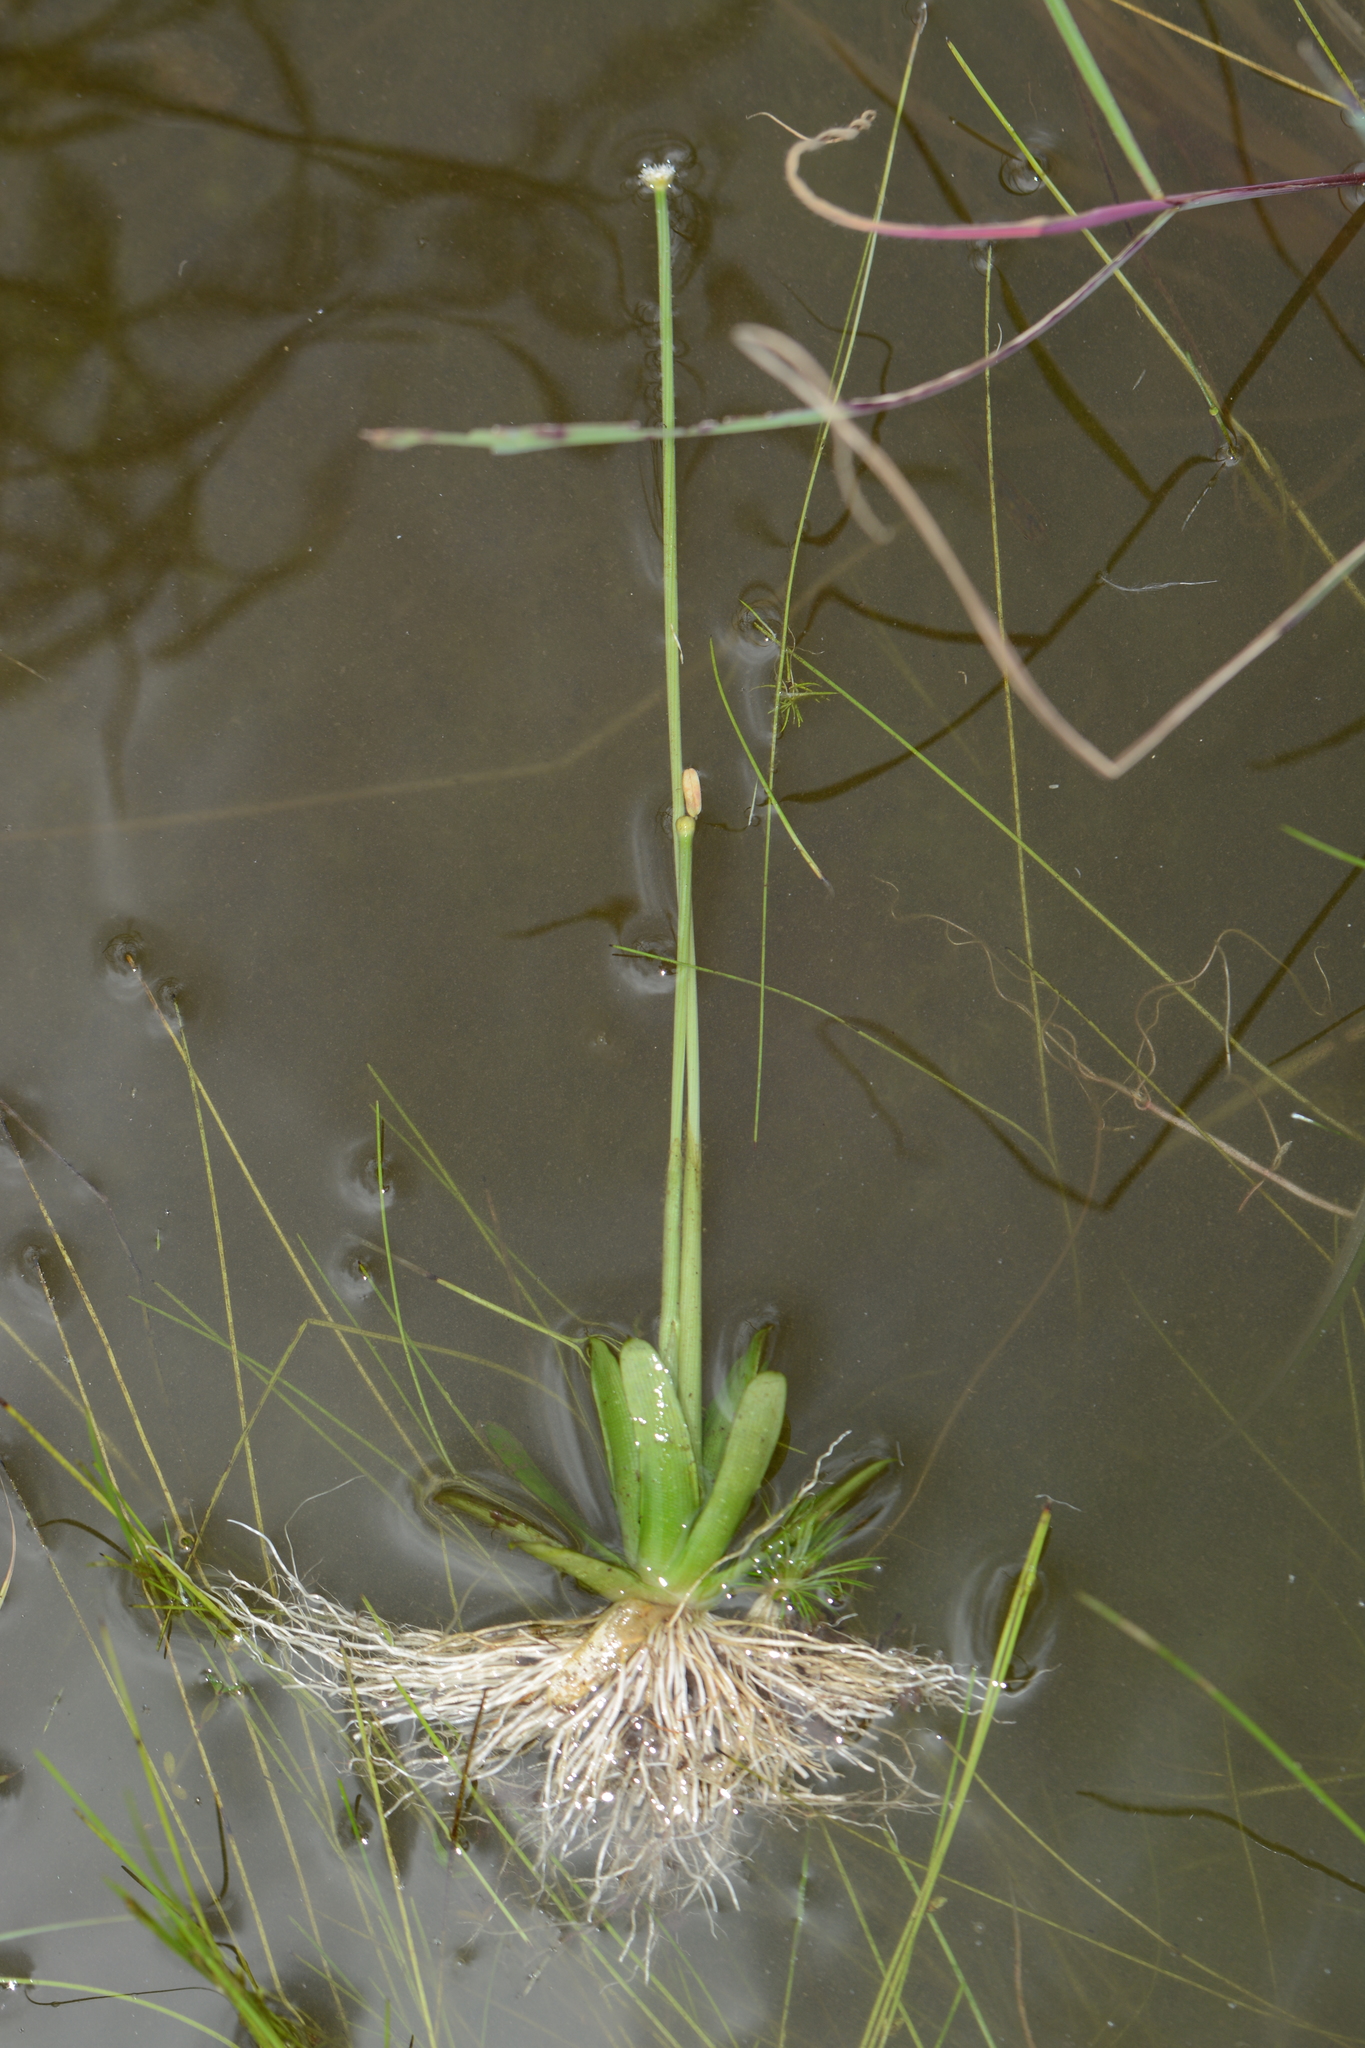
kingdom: Plantae
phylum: Tracheophyta
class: Liliopsida
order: Poales
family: Eriocaulaceae
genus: Eriocaulon
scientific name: Eriocaulon cuspidatum
